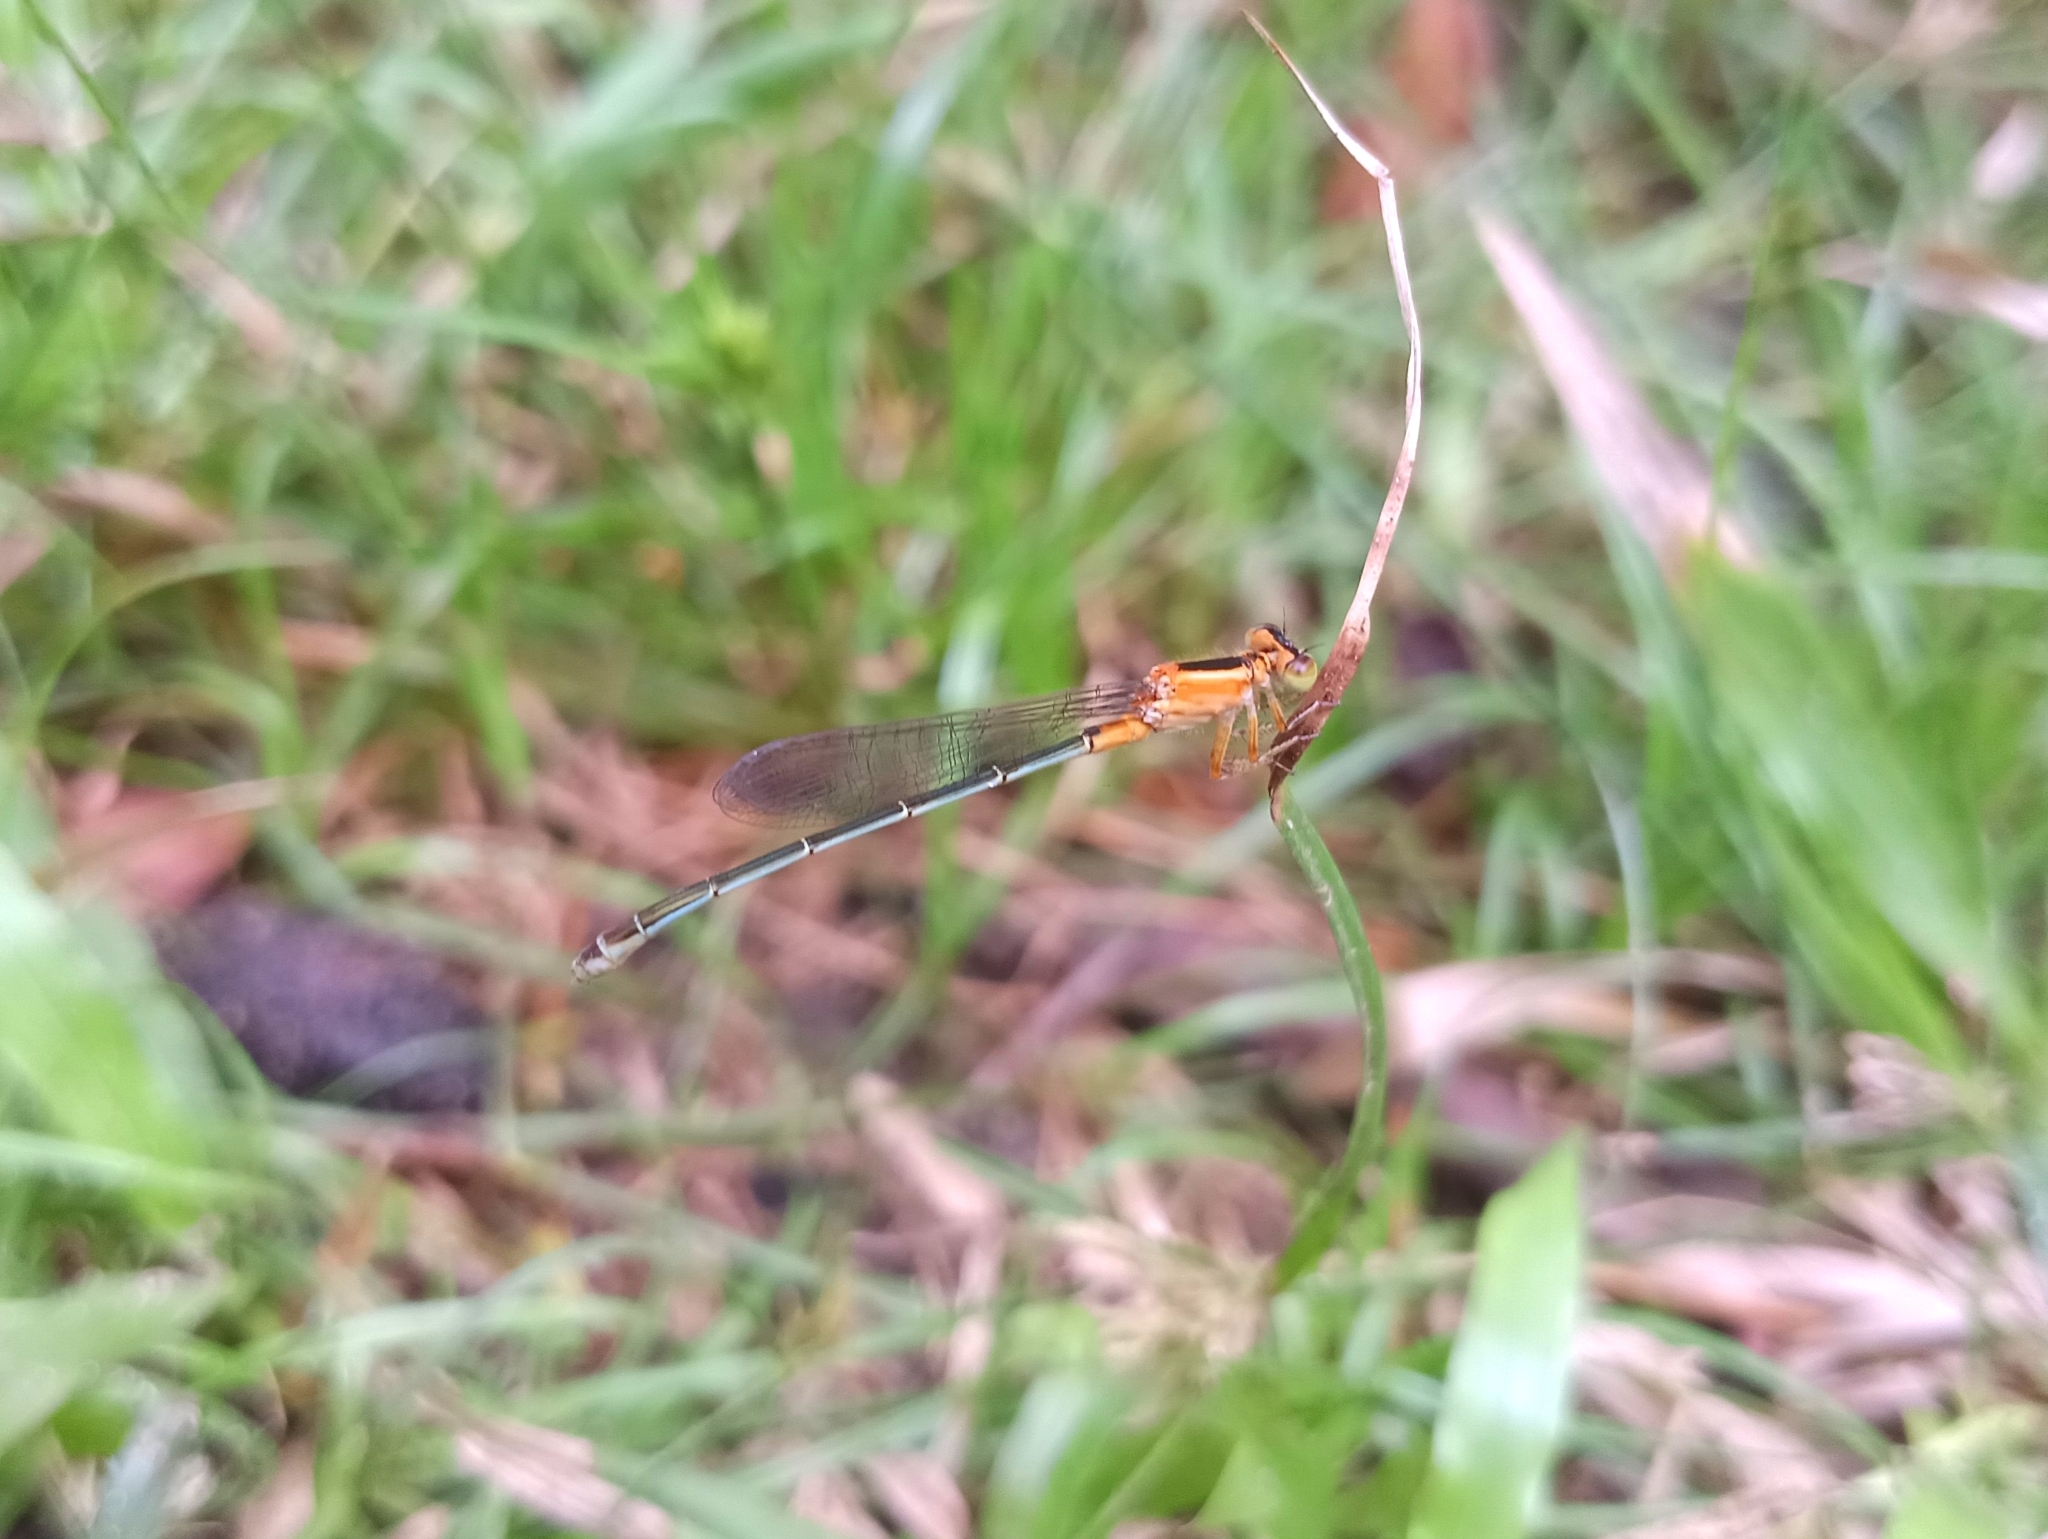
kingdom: Animalia
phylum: Arthropoda
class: Insecta
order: Odonata
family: Coenagrionidae
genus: Ischnura
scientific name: Ischnura senegalensis
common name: Tropical bluetail
